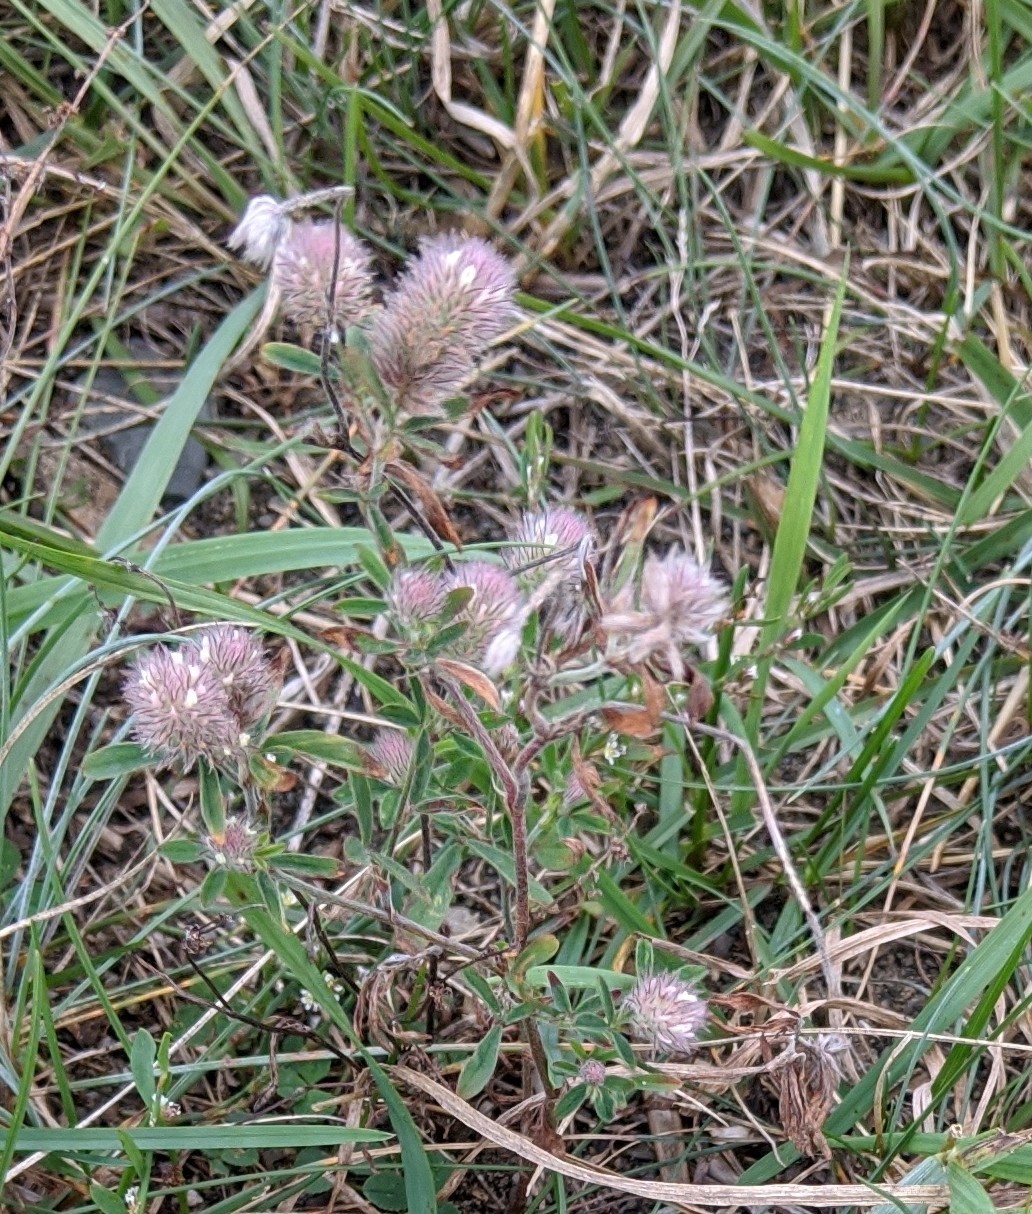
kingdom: Plantae
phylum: Tracheophyta
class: Magnoliopsida
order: Fabales
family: Fabaceae
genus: Trifolium
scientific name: Trifolium arvense
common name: Hare's-foot clover
